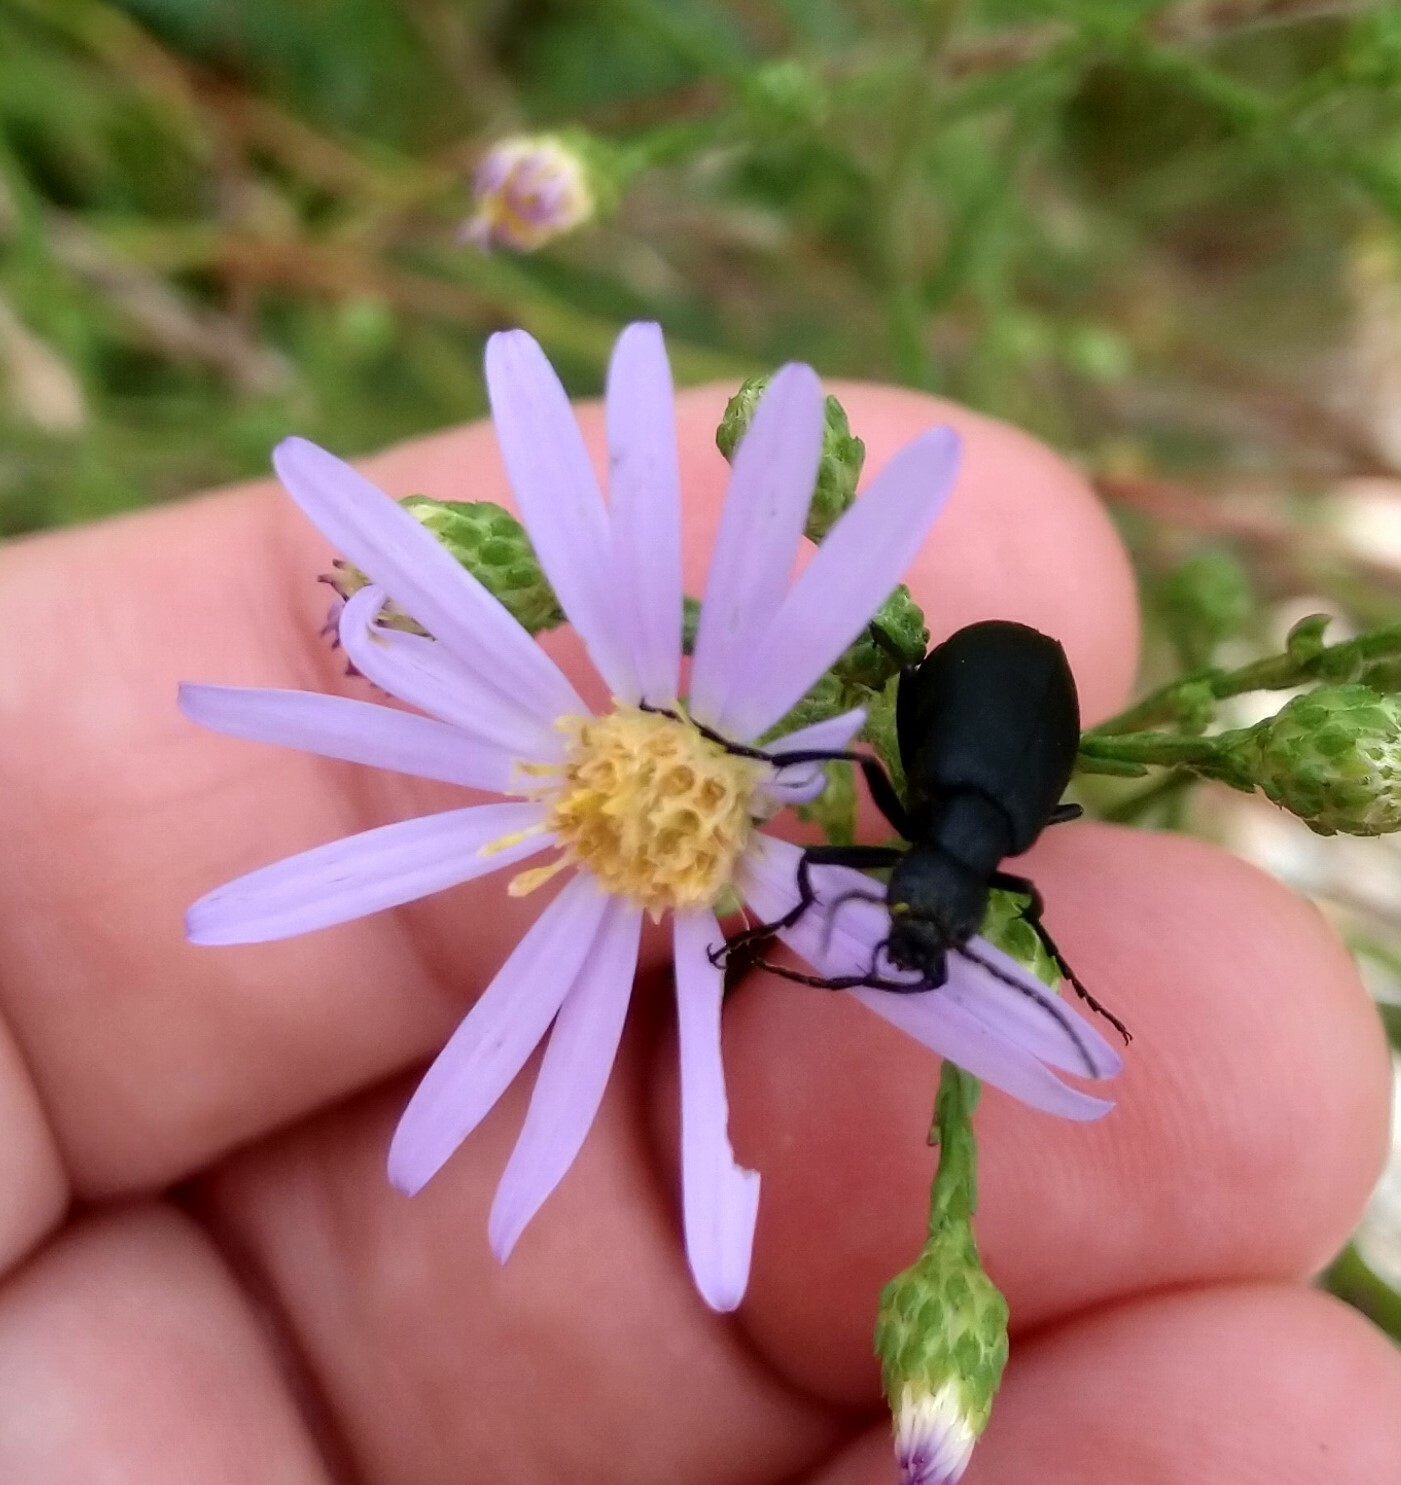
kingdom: Animalia
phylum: Arthropoda
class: Insecta
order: Coleoptera
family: Meloidae
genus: Epicauta
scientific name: Epicauta pensylvanica
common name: Black blister beetle
